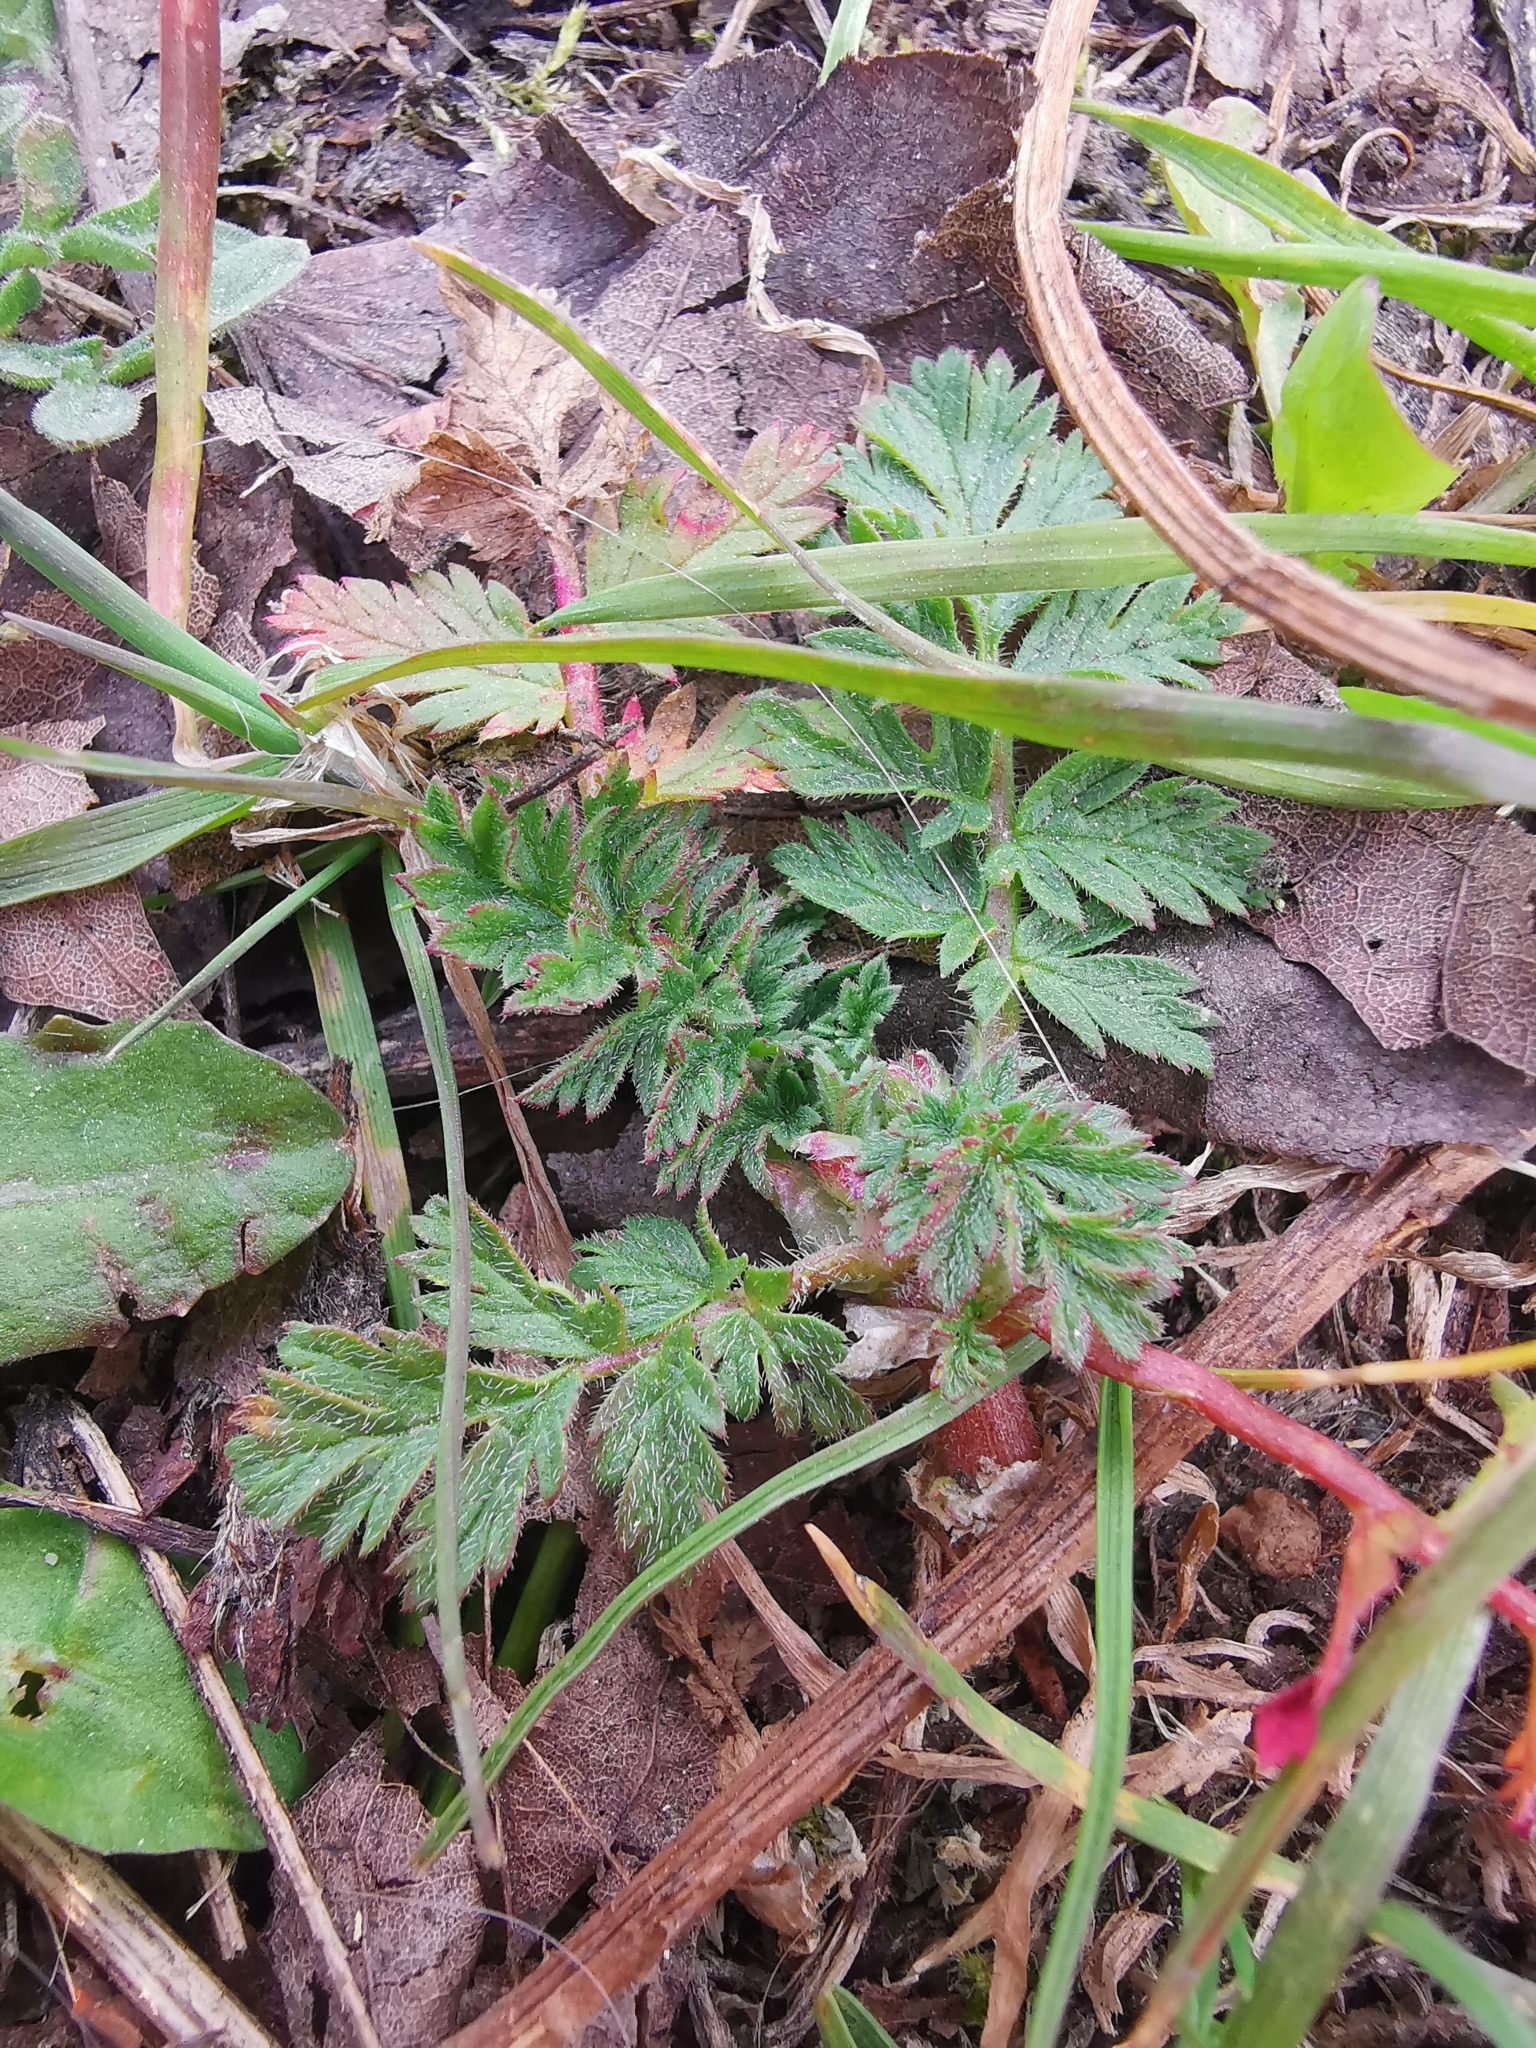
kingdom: Plantae
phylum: Tracheophyta
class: Magnoliopsida
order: Geraniales
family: Geraniaceae
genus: Erodium
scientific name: Erodium cicutarium
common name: Common stork's-bill
